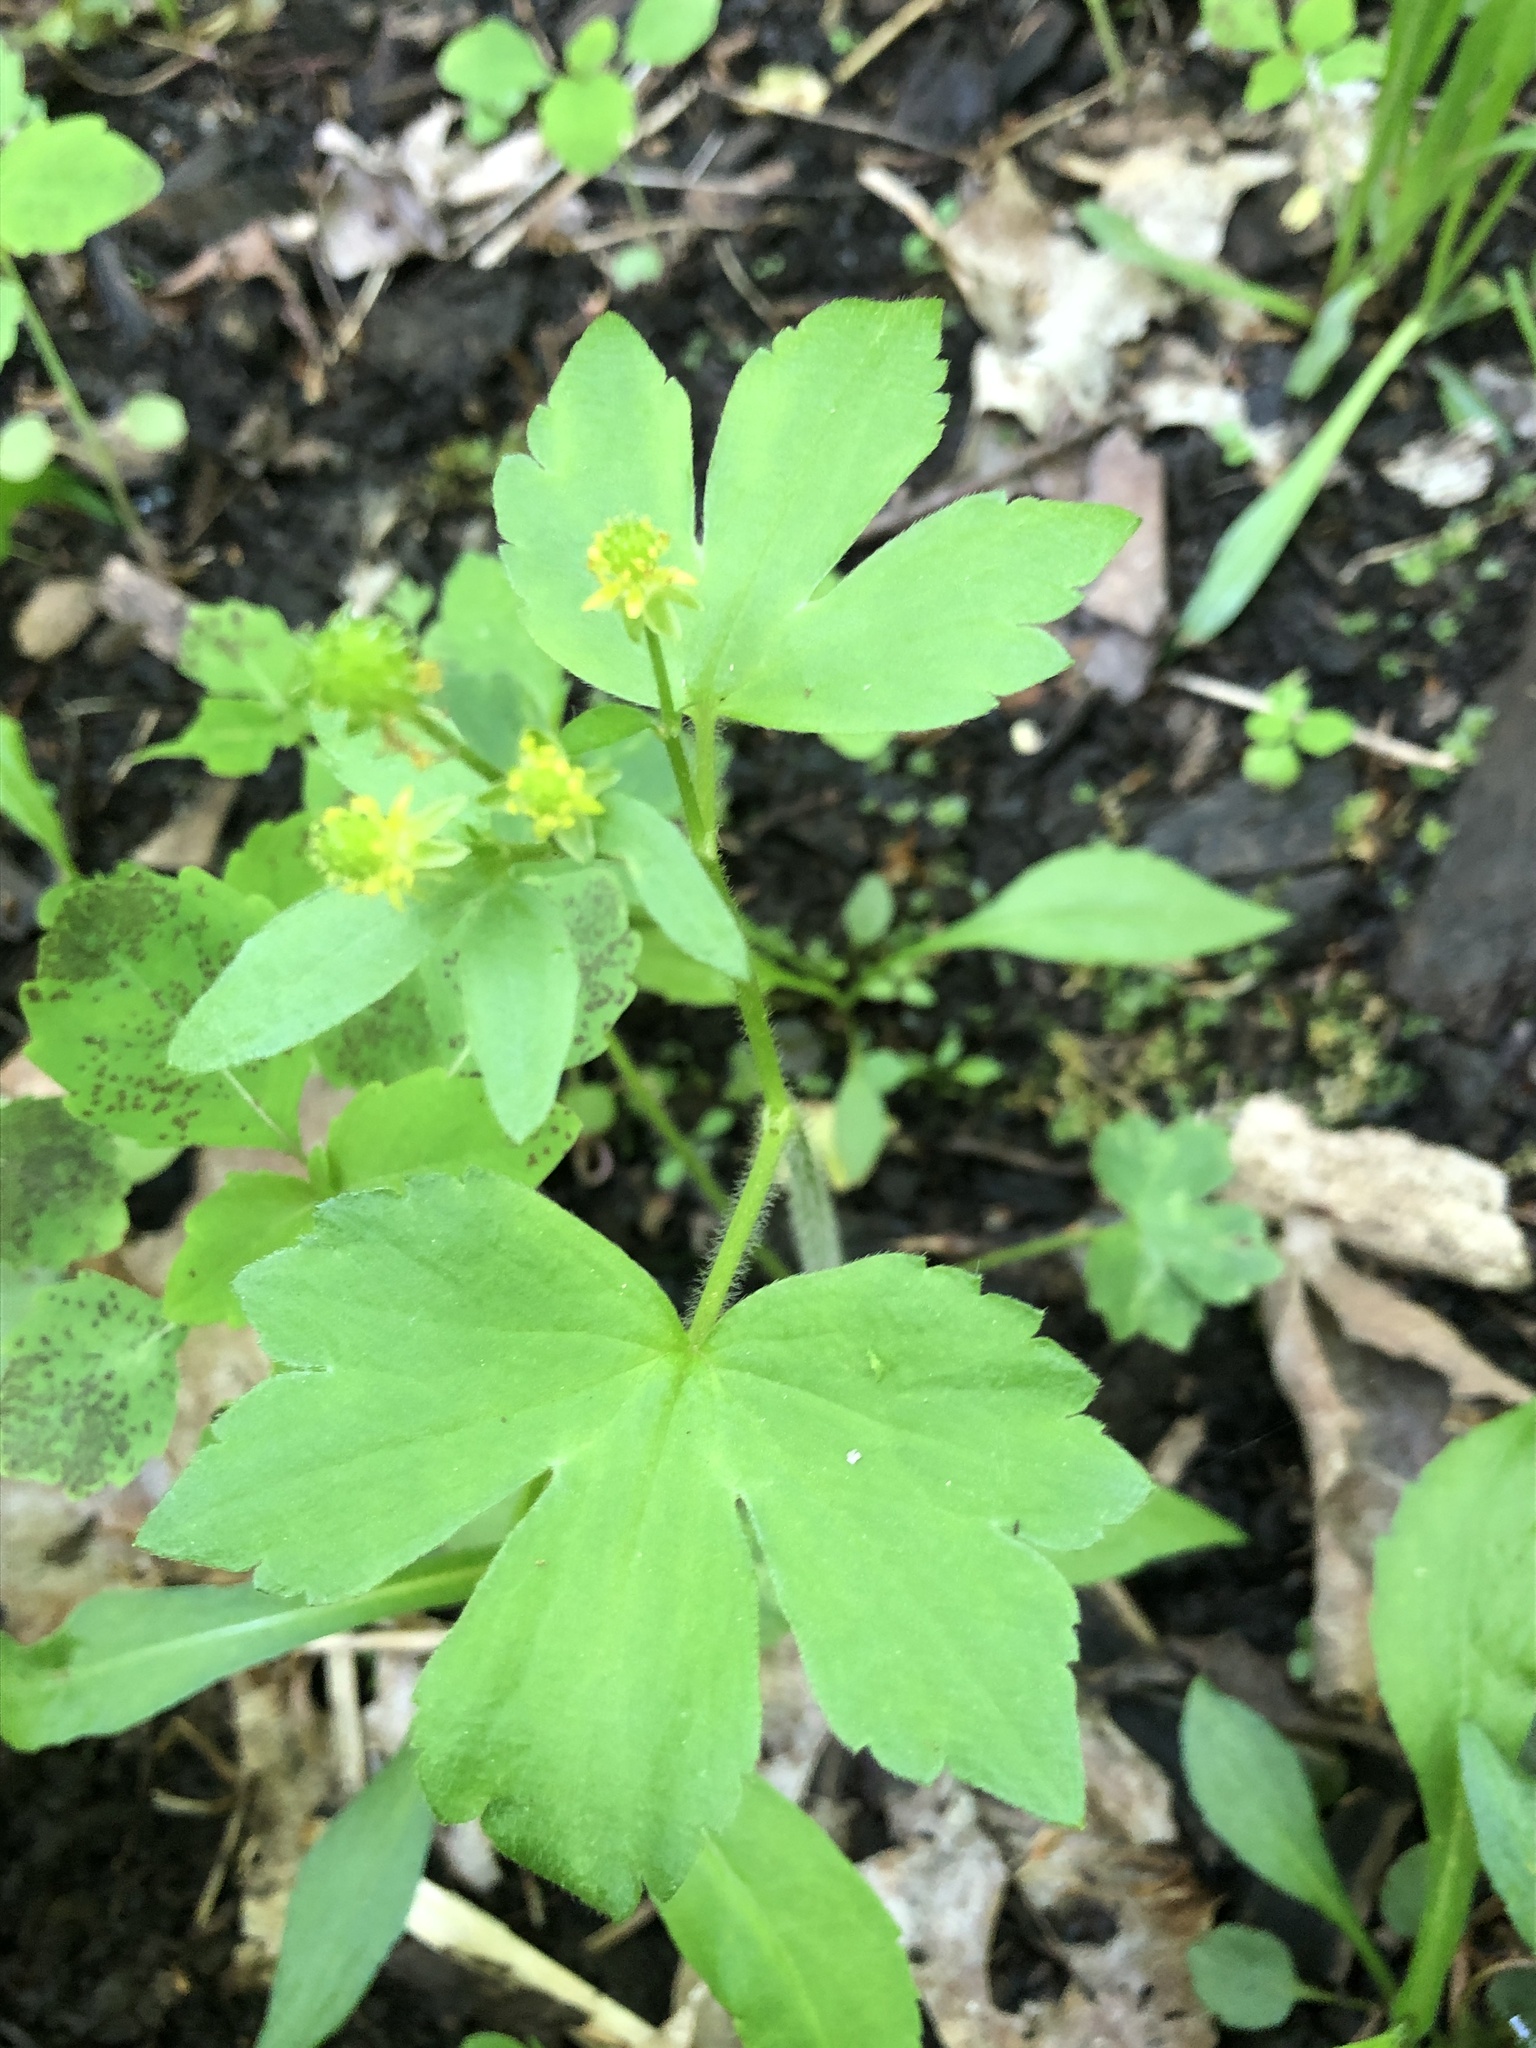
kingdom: Plantae
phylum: Tracheophyta
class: Magnoliopsida
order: Ranunculales
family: Ranunculaceae
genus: Ranunculus
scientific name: Ranunculus recurvatus
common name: Blisterwort
